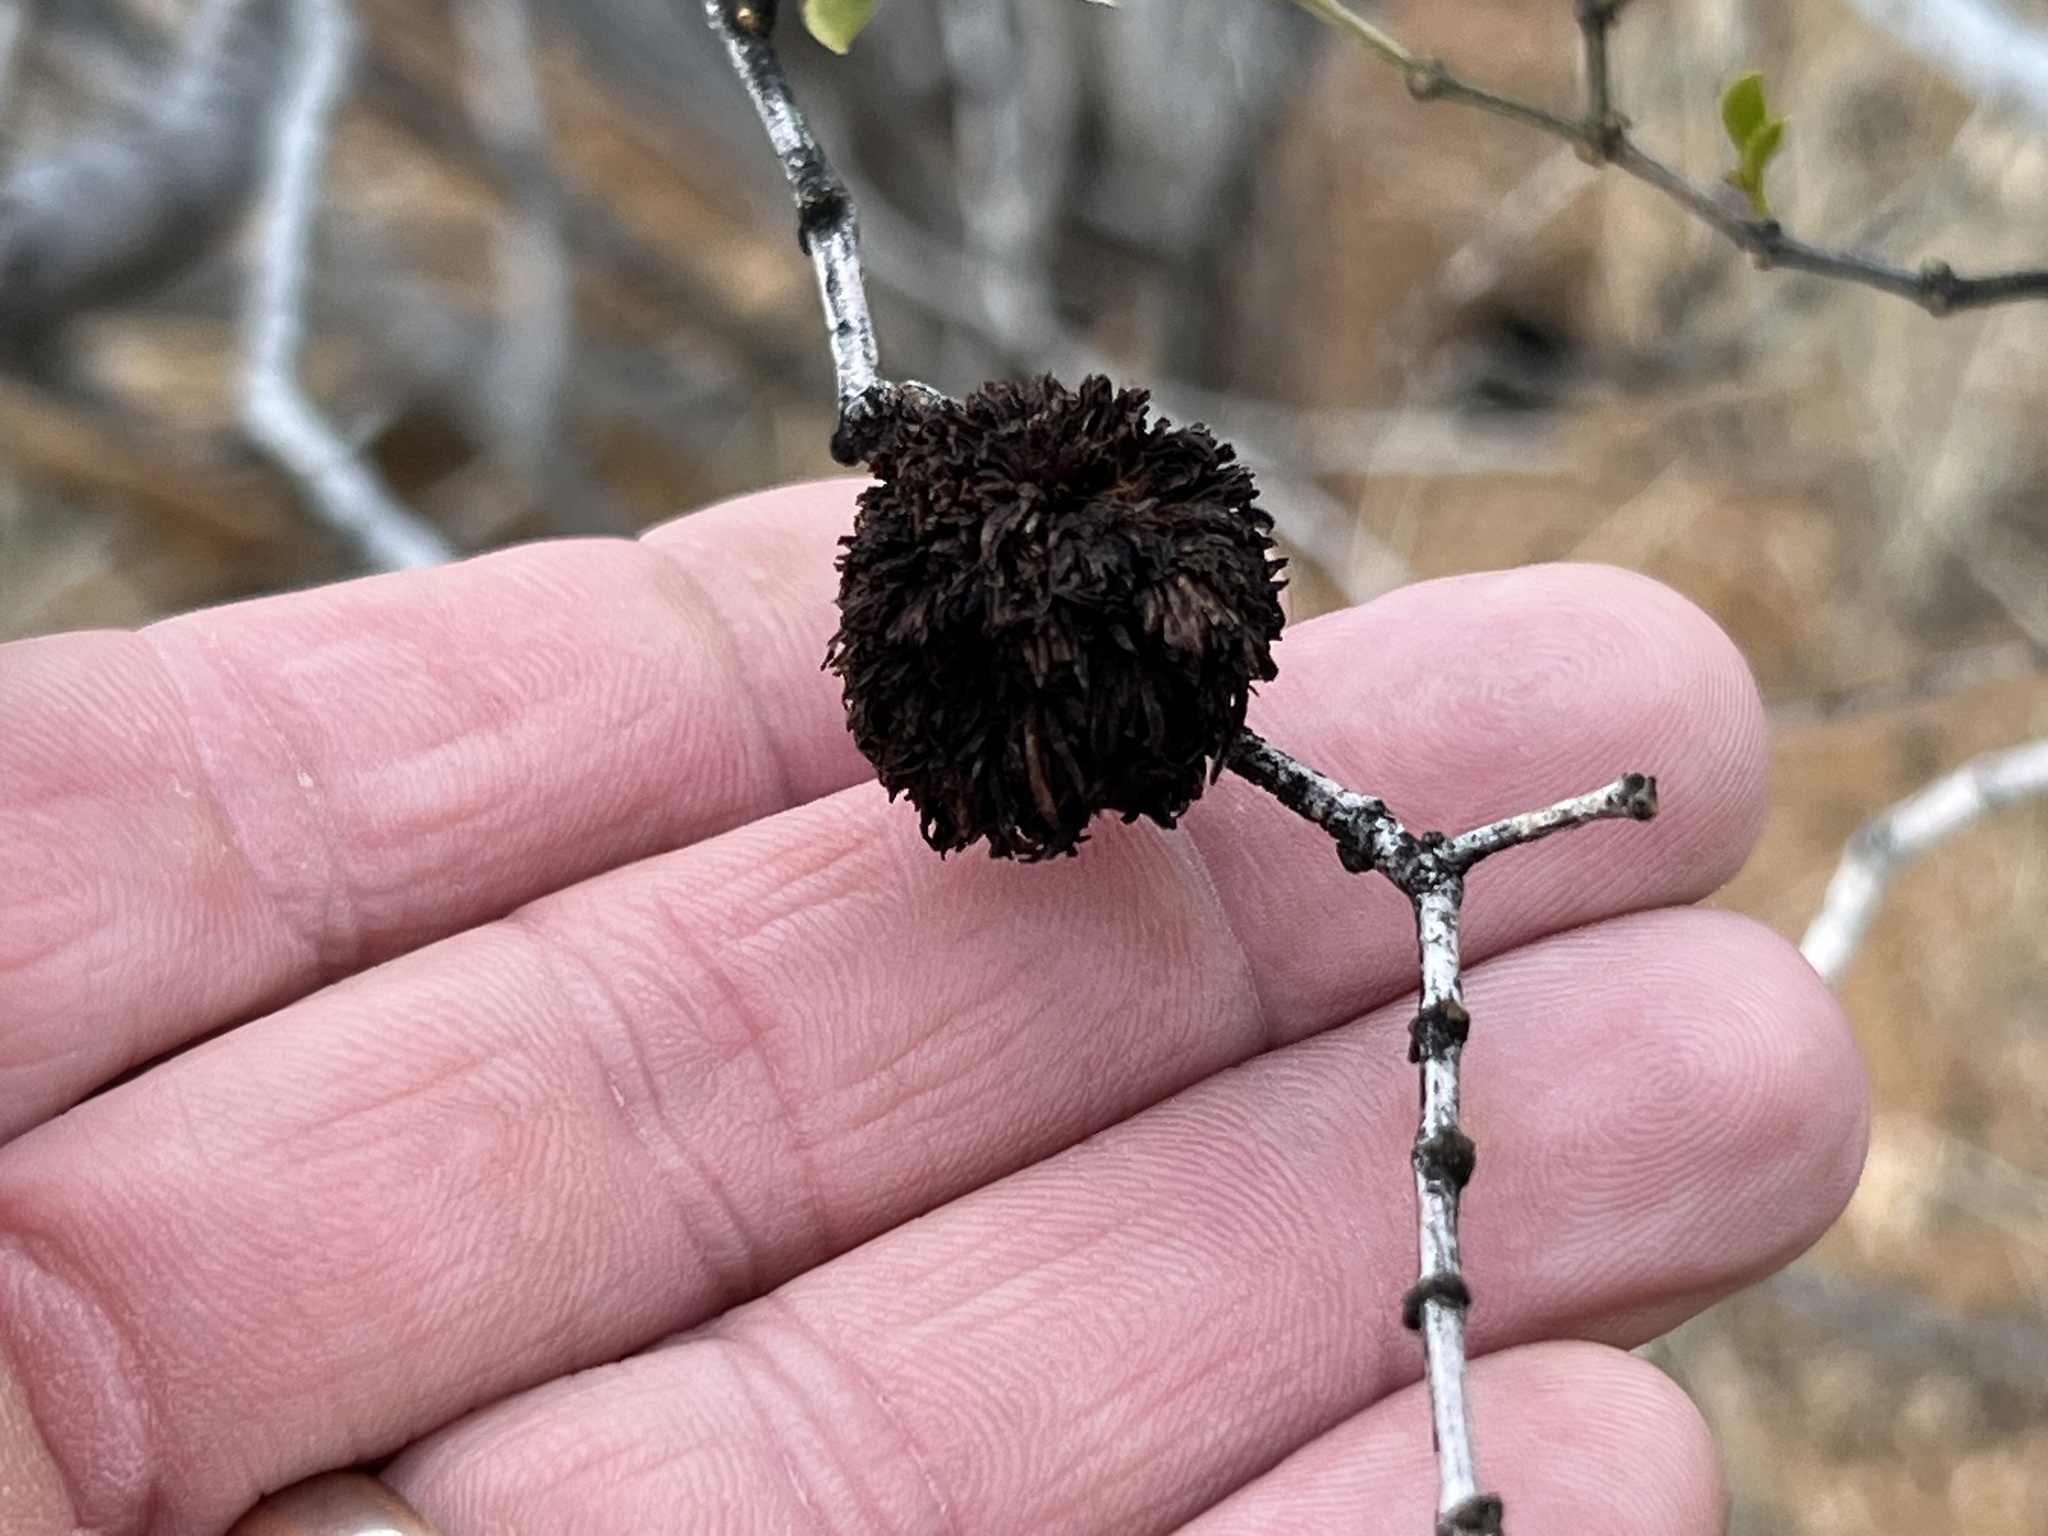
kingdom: Animalia
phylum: Arthropoda
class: Insecta
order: Diptera
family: Cecidomyiidae
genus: Asphondylia
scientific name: Asphondylia auripila
